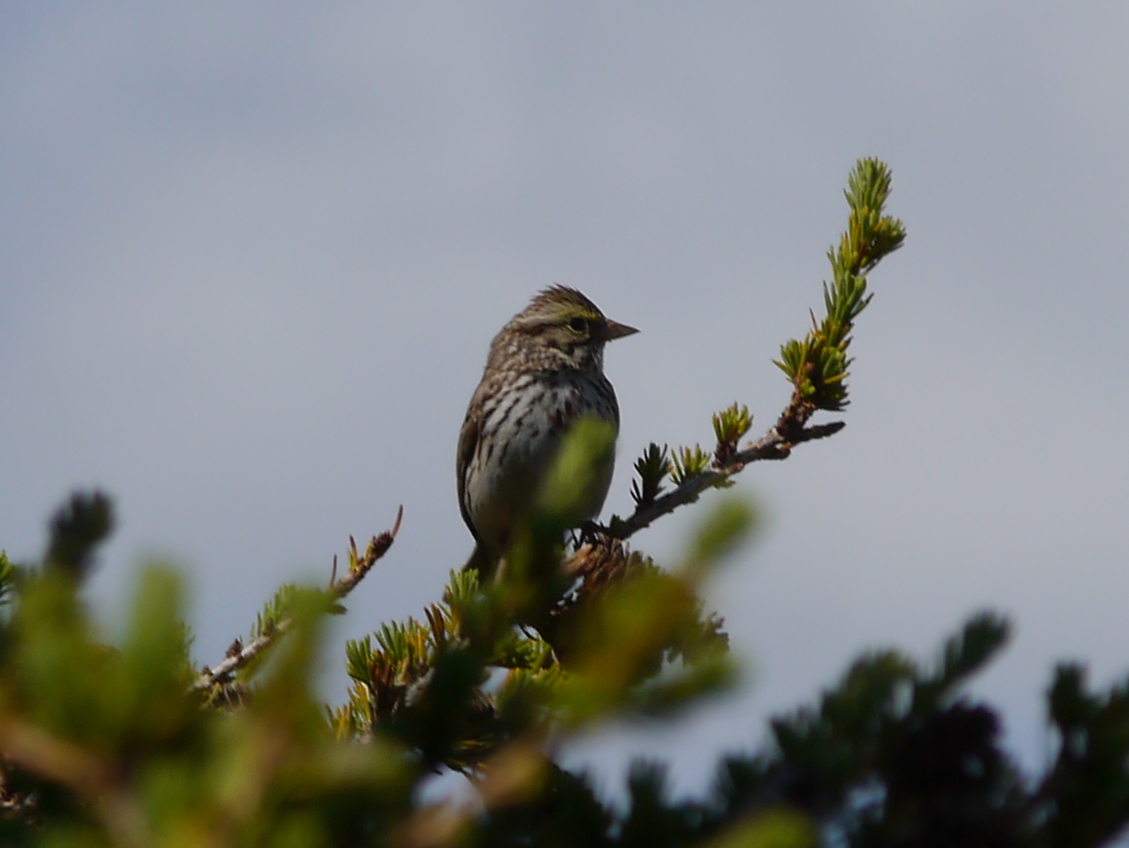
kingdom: Animalia
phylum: Chordata
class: Aves
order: Passeriformes
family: Passerellidae
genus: Passerculus
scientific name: Passerculus sandwichensis
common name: Savannah sparrow
